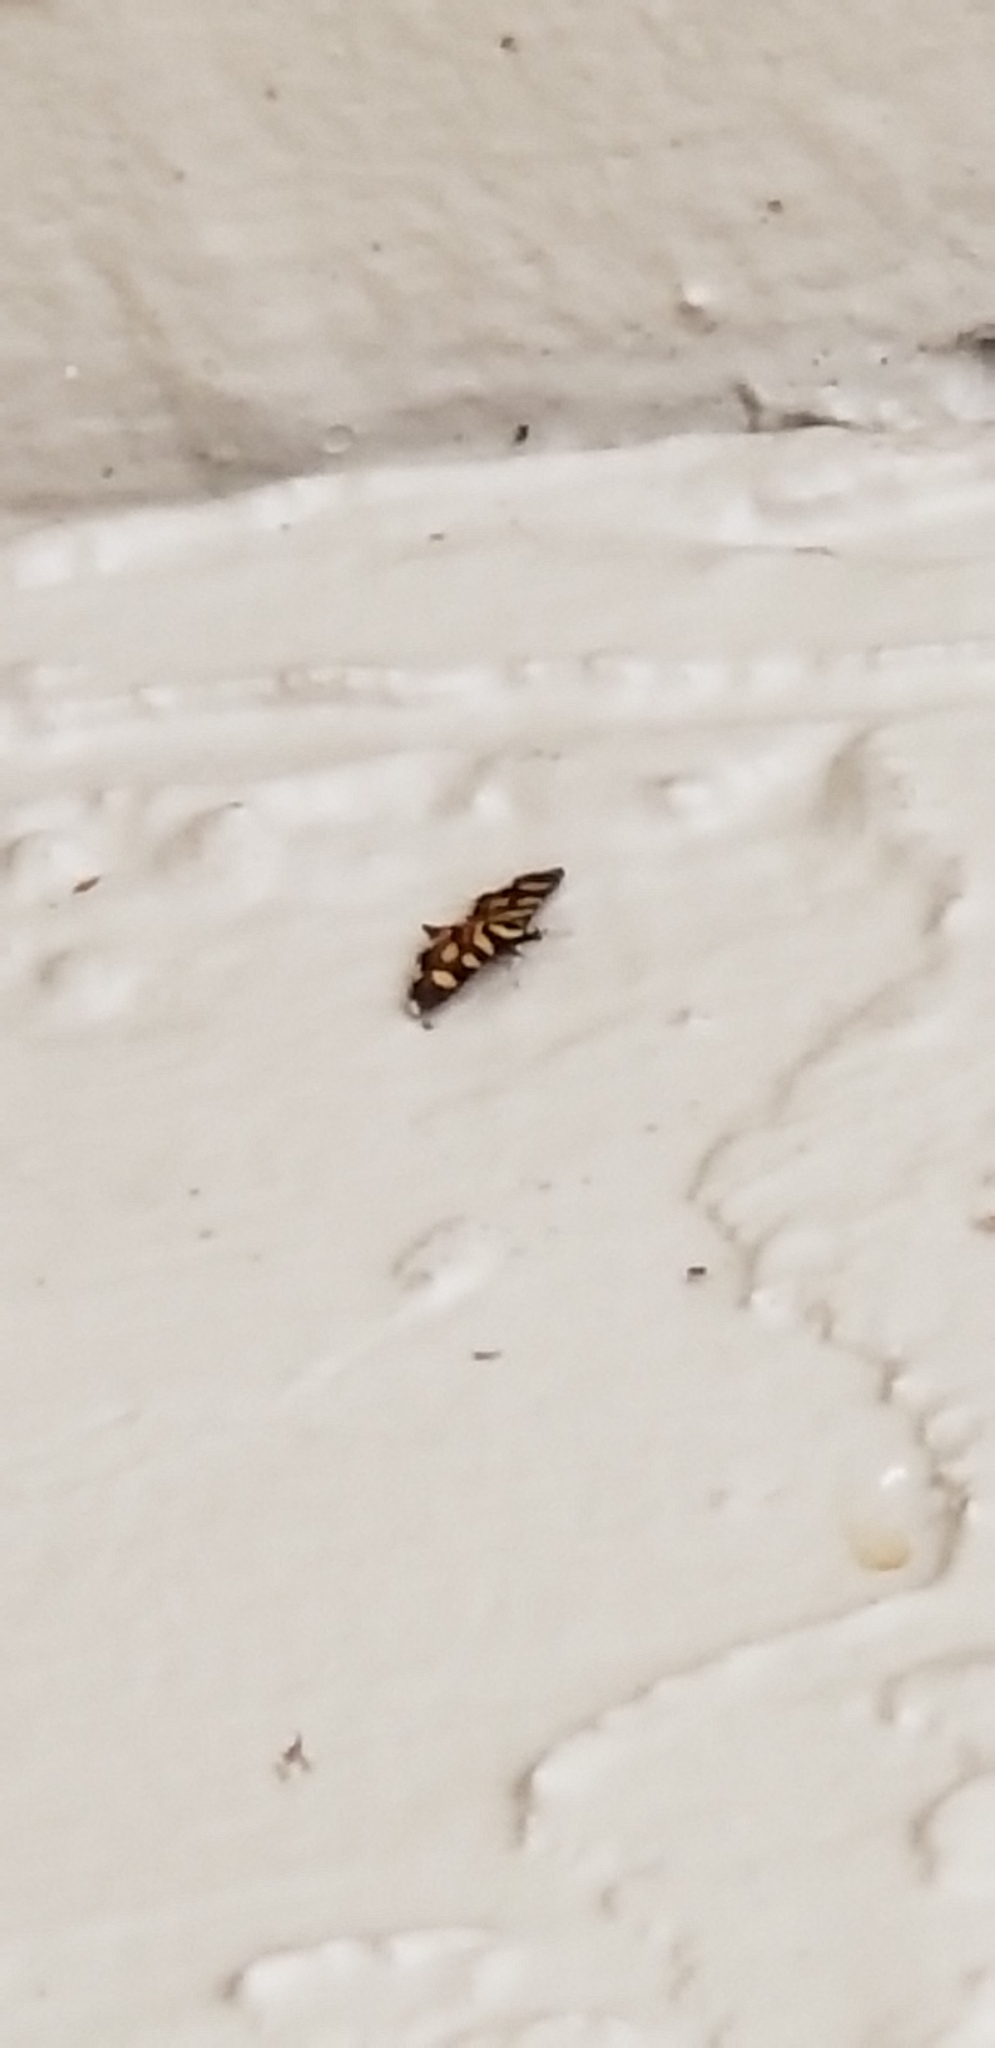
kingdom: Animalia
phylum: Arthropoda
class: Insecta
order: Lepidoptera
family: Crambidae
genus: Syngamia
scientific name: Syngamia florella
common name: Orange-spotted flower moth
